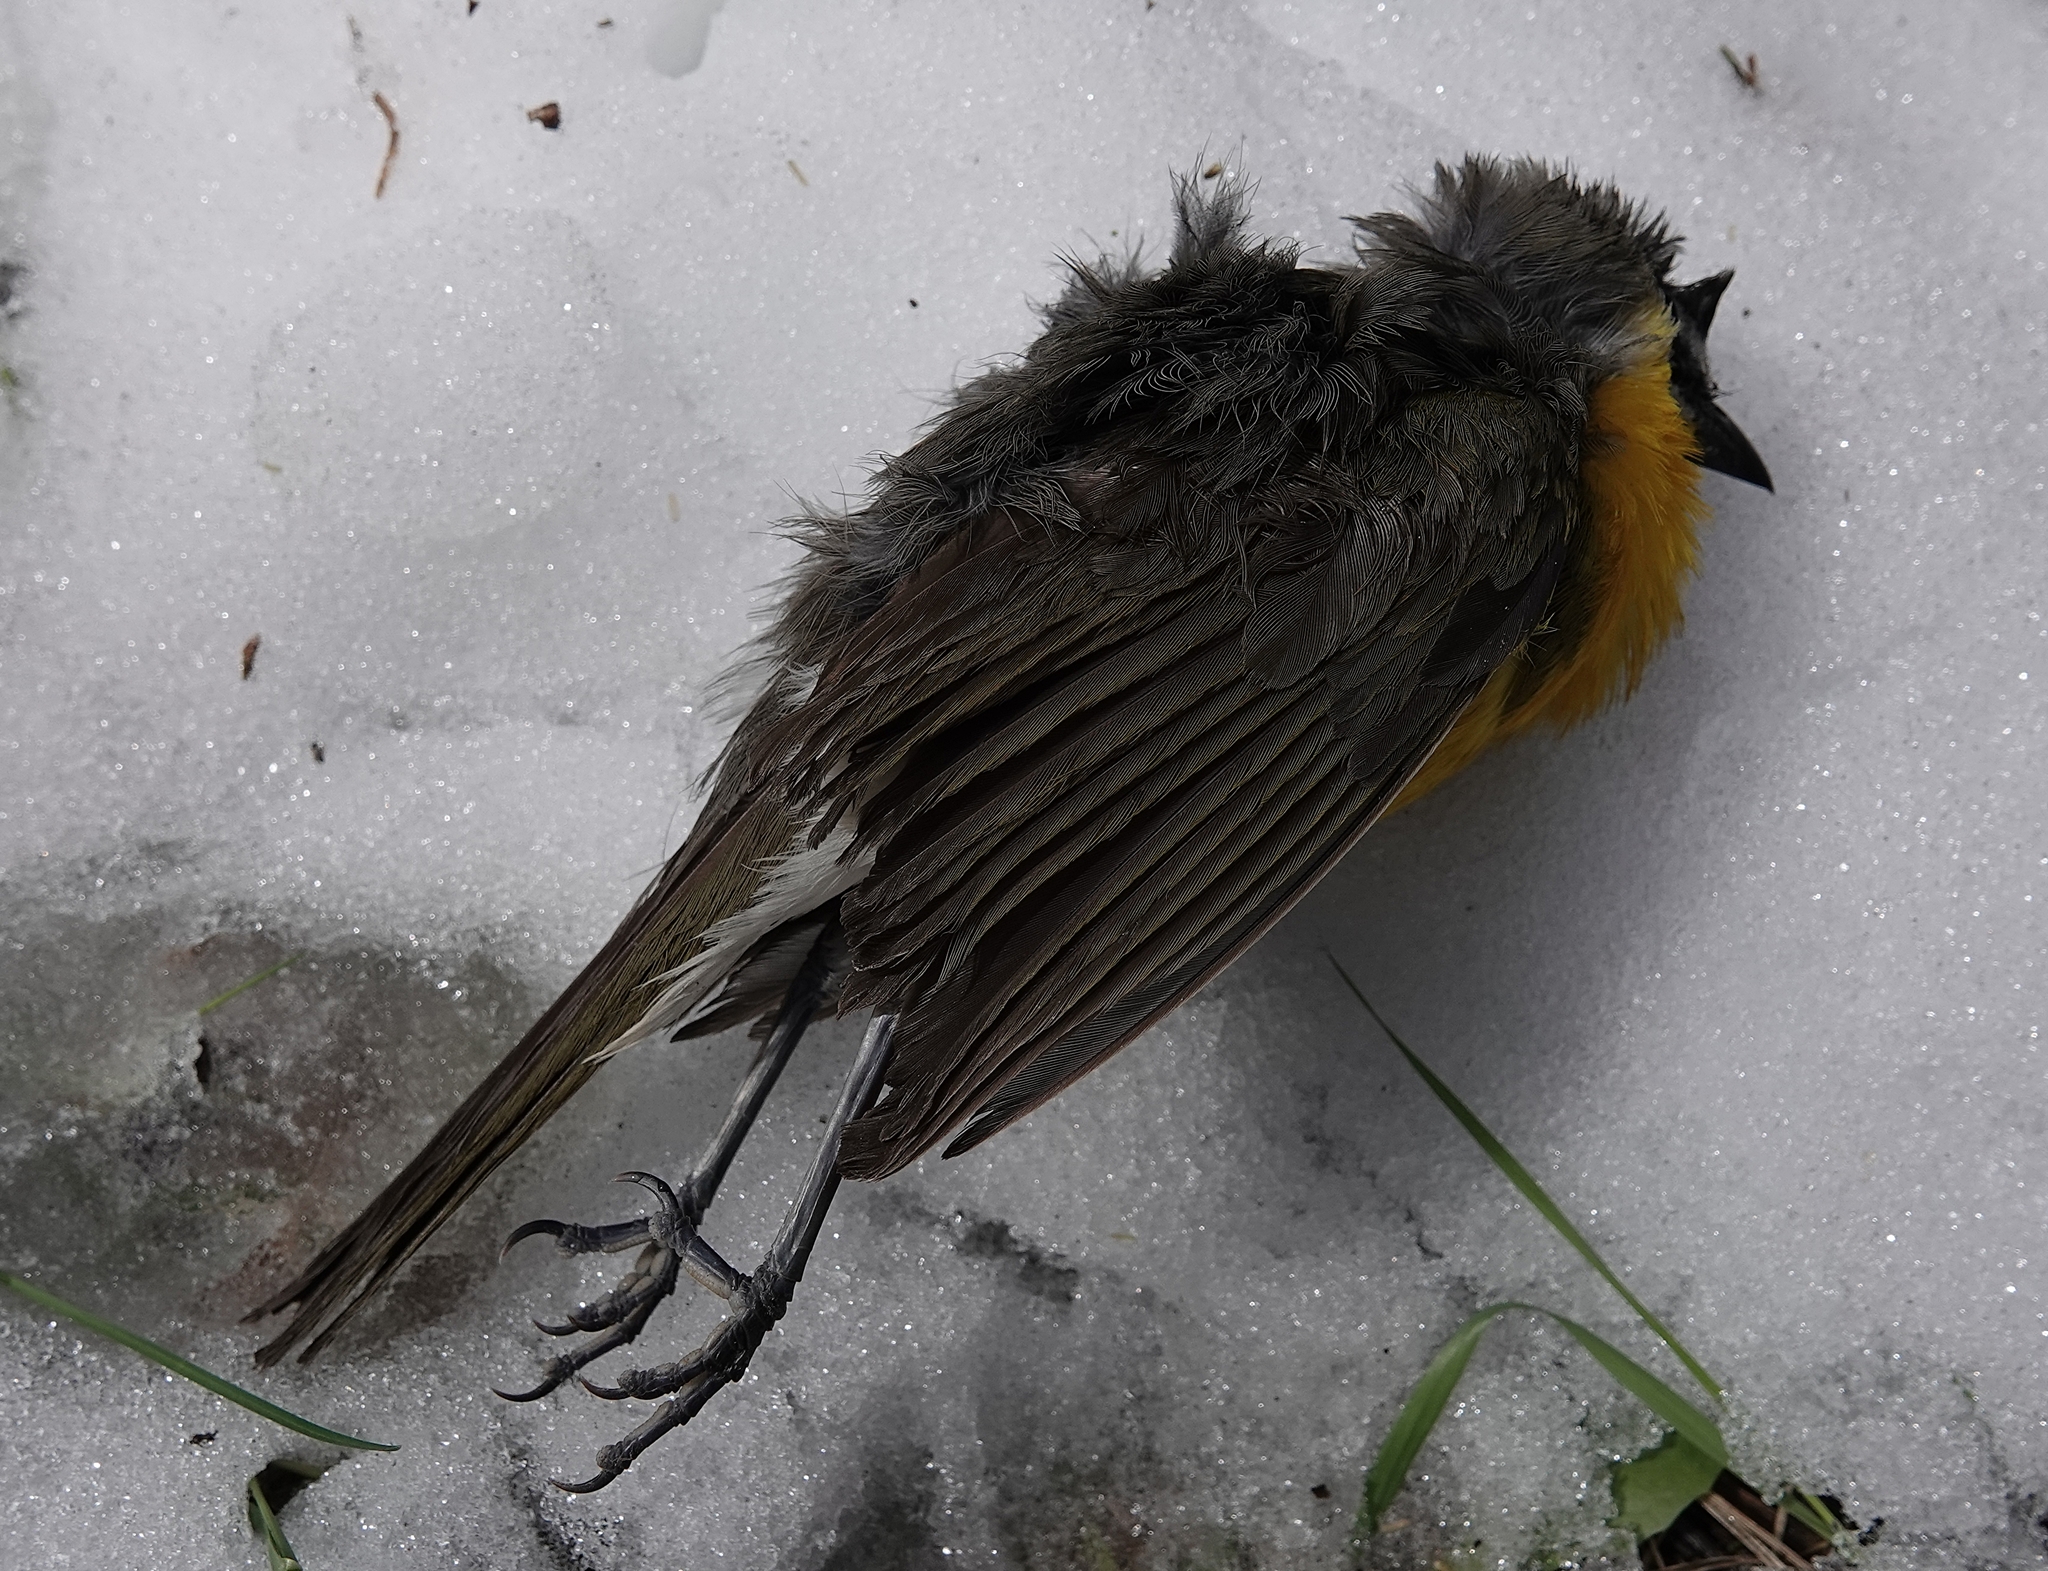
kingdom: Animalia
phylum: Chordata
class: Aves
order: Passeriformes
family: Parulidae
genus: Icteria
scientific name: Icteria virens
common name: Yellow-breasted chat
